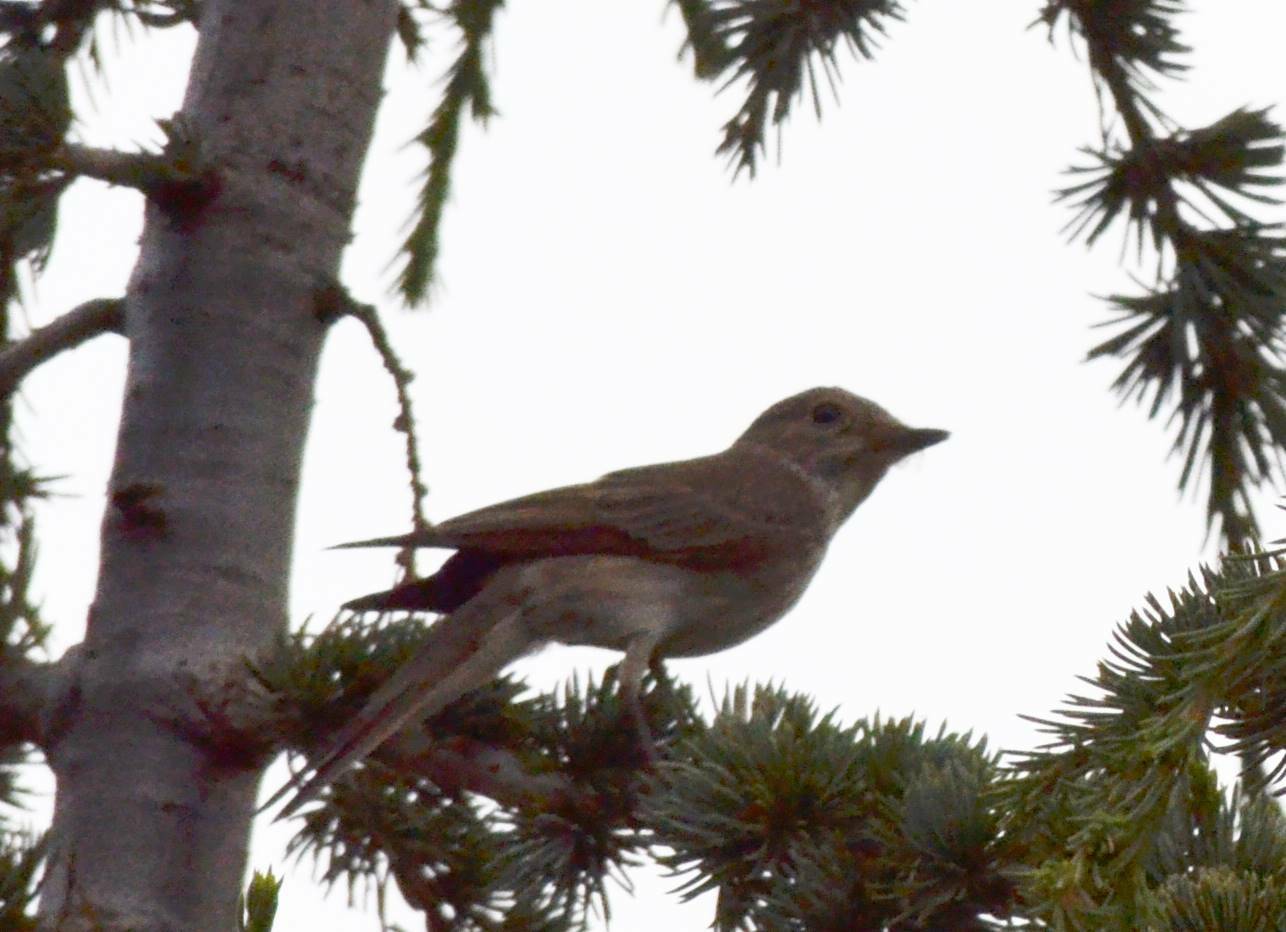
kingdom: Animalia
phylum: Chordata
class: Aves
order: Passeriformes
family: Muscicapidae
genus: Muscicapa
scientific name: Muscicapa striata
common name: Spotted flycatcher
